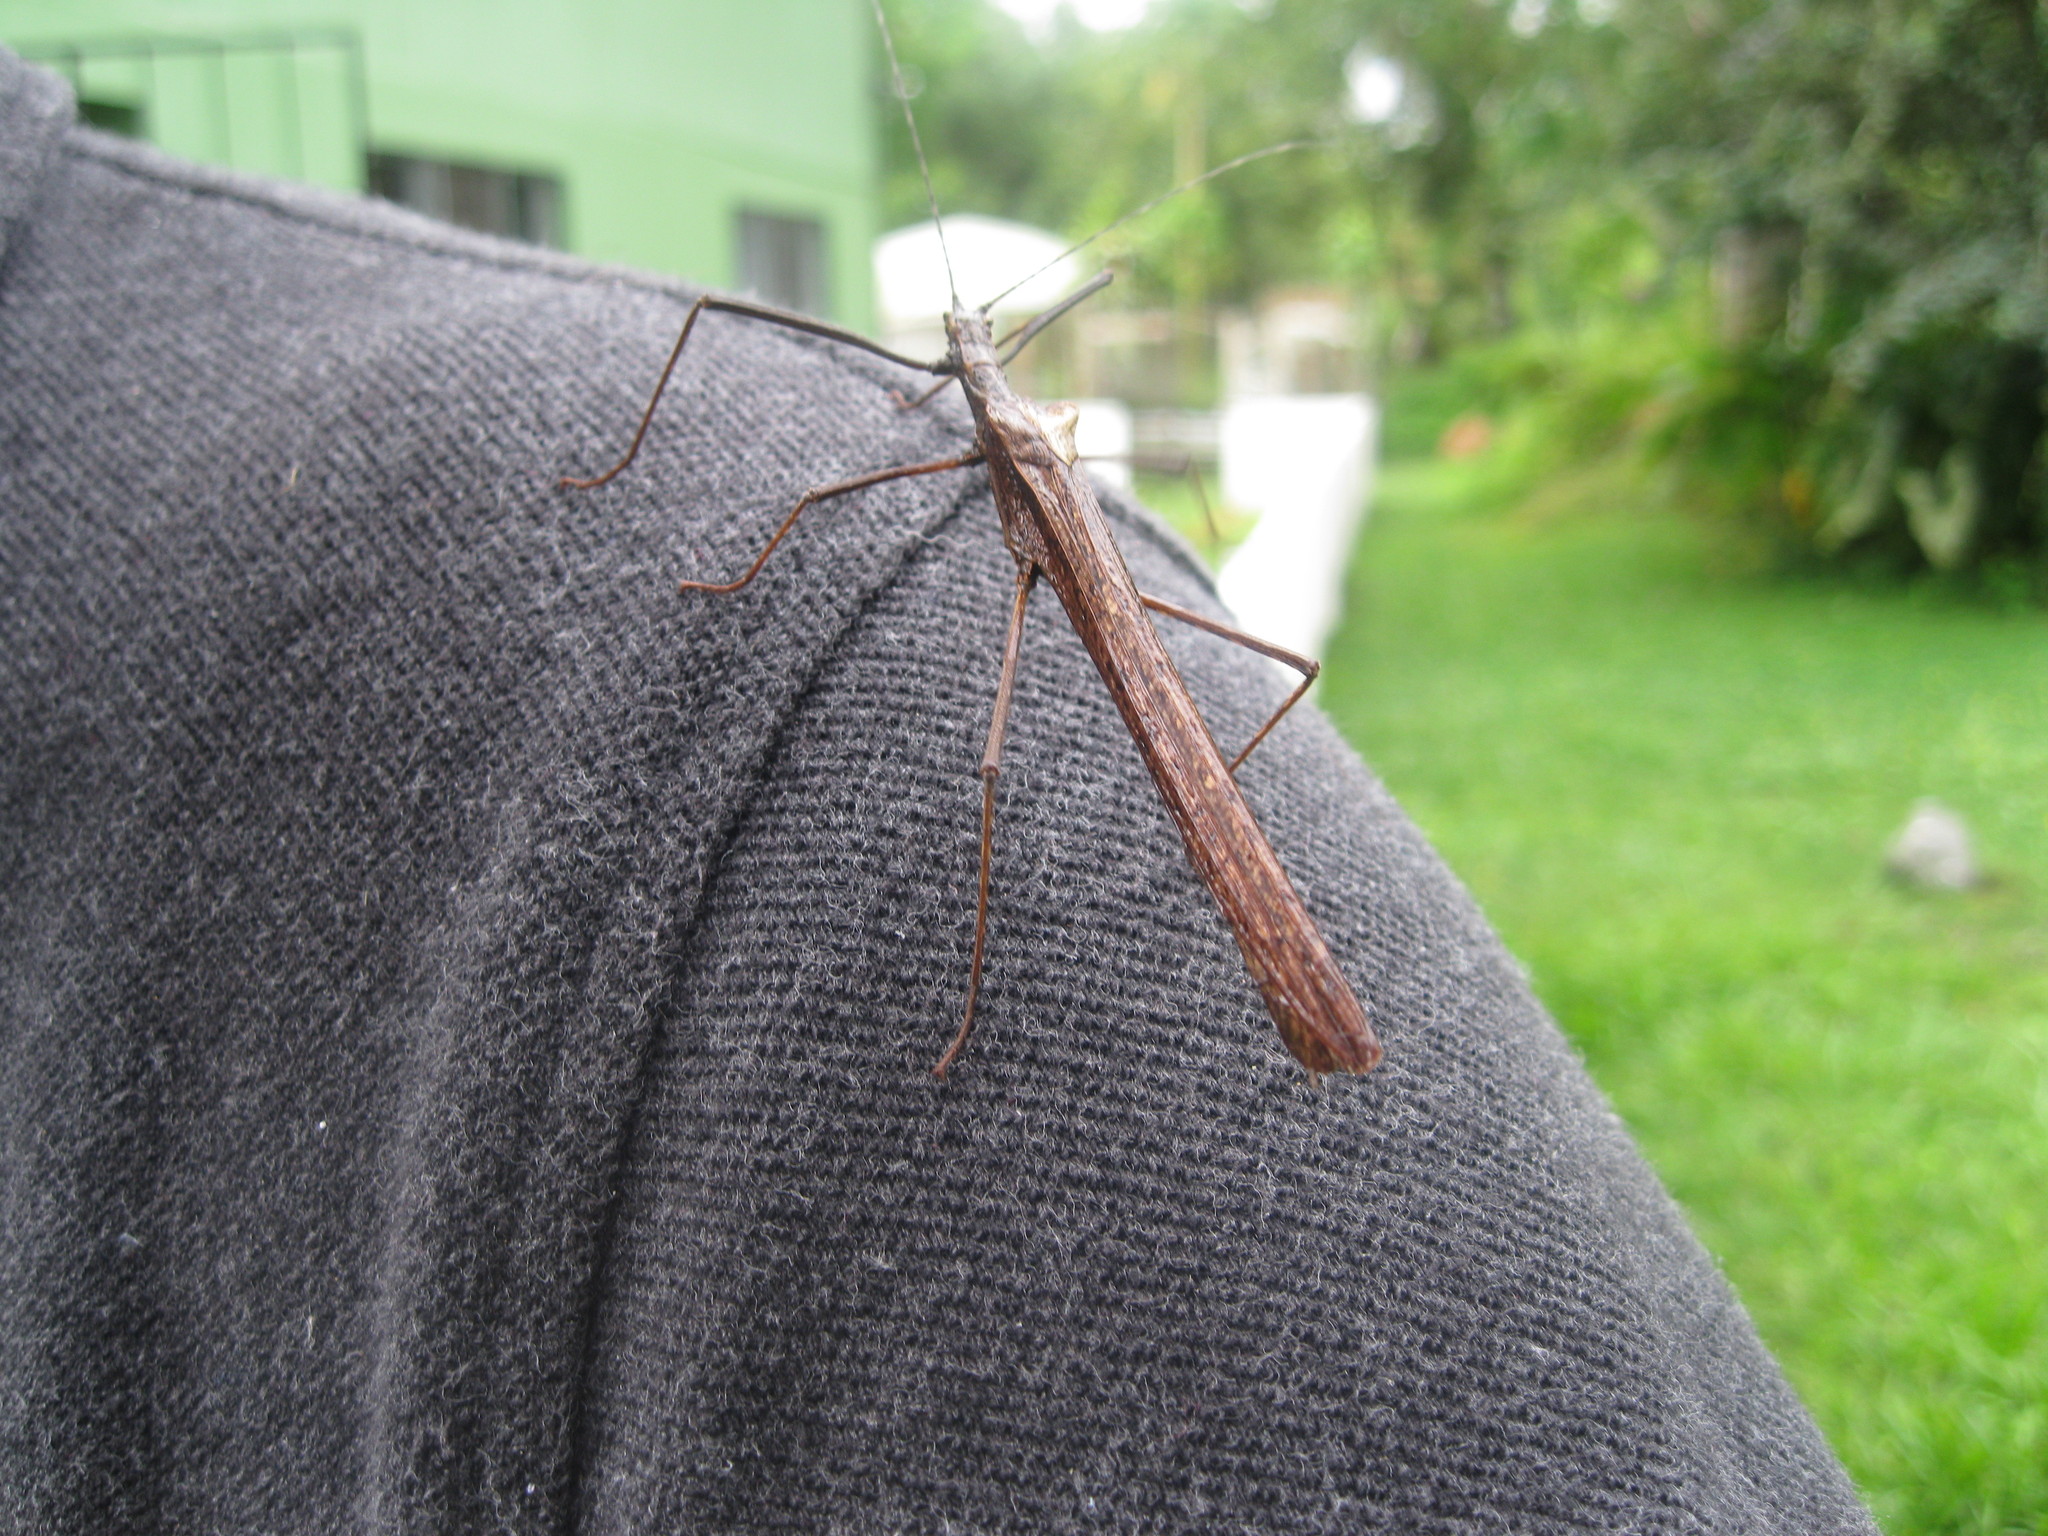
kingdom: Animalia
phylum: Arthropoda
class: Insecta
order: Phasmida
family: Pseudophasmatidae
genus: Pseudophasma
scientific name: Pseudophasma unicolor
